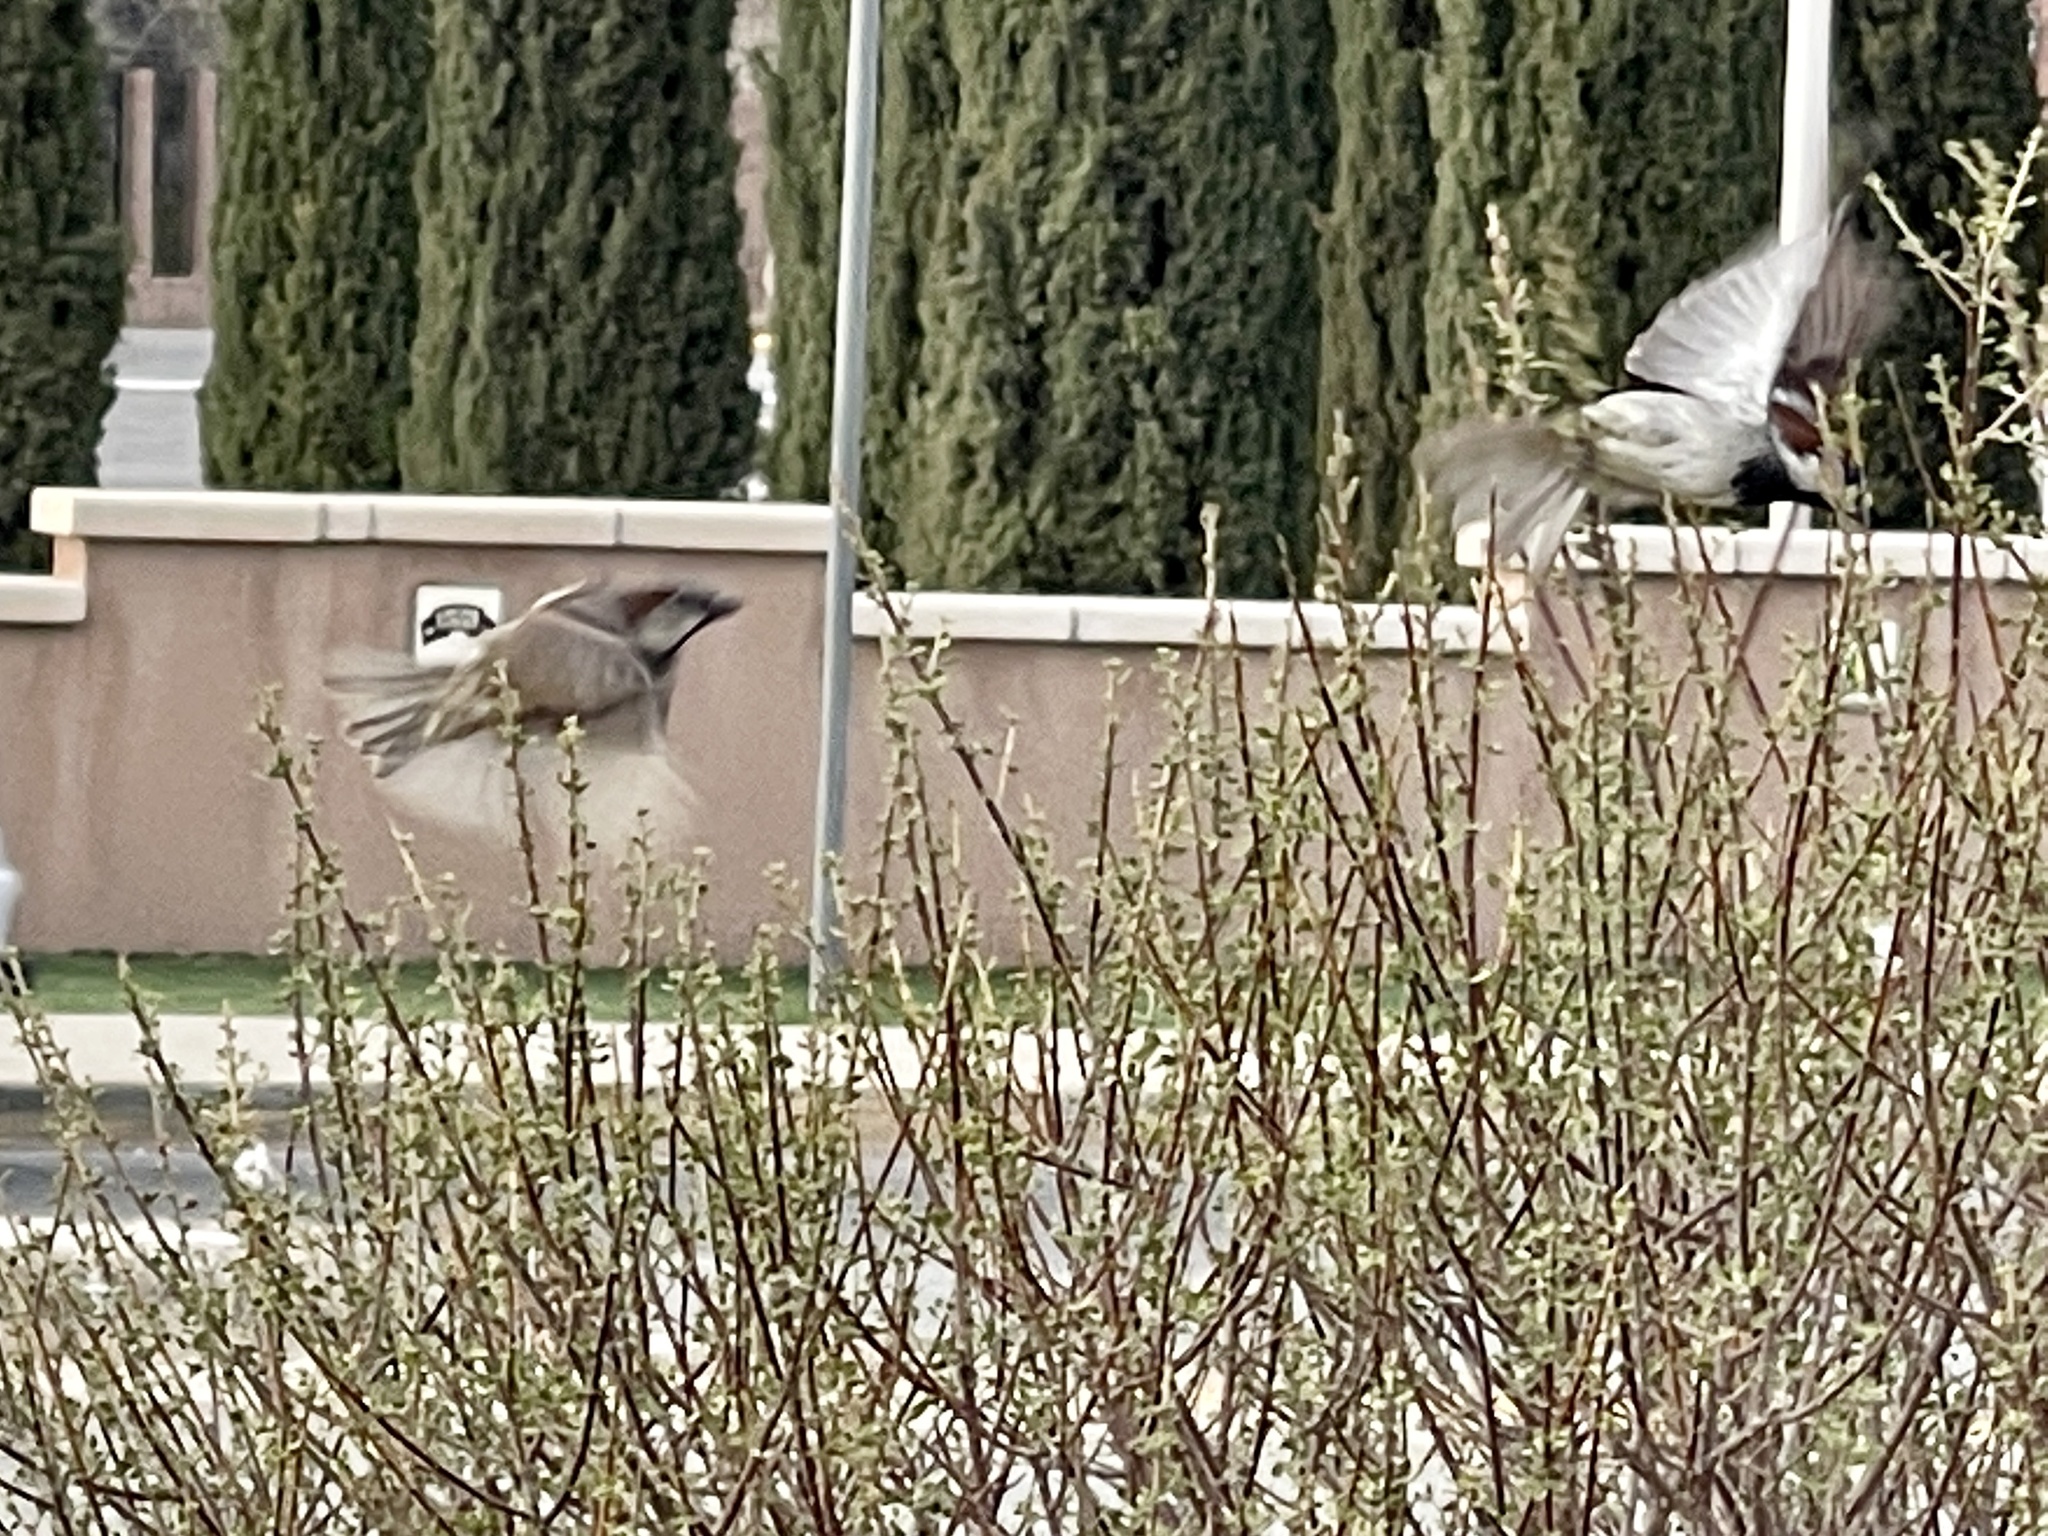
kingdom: Animalia
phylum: Chordata
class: Aves
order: Passeriformes
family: Passeridae
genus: Passer
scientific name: Passer domesticus
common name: House sparrow
